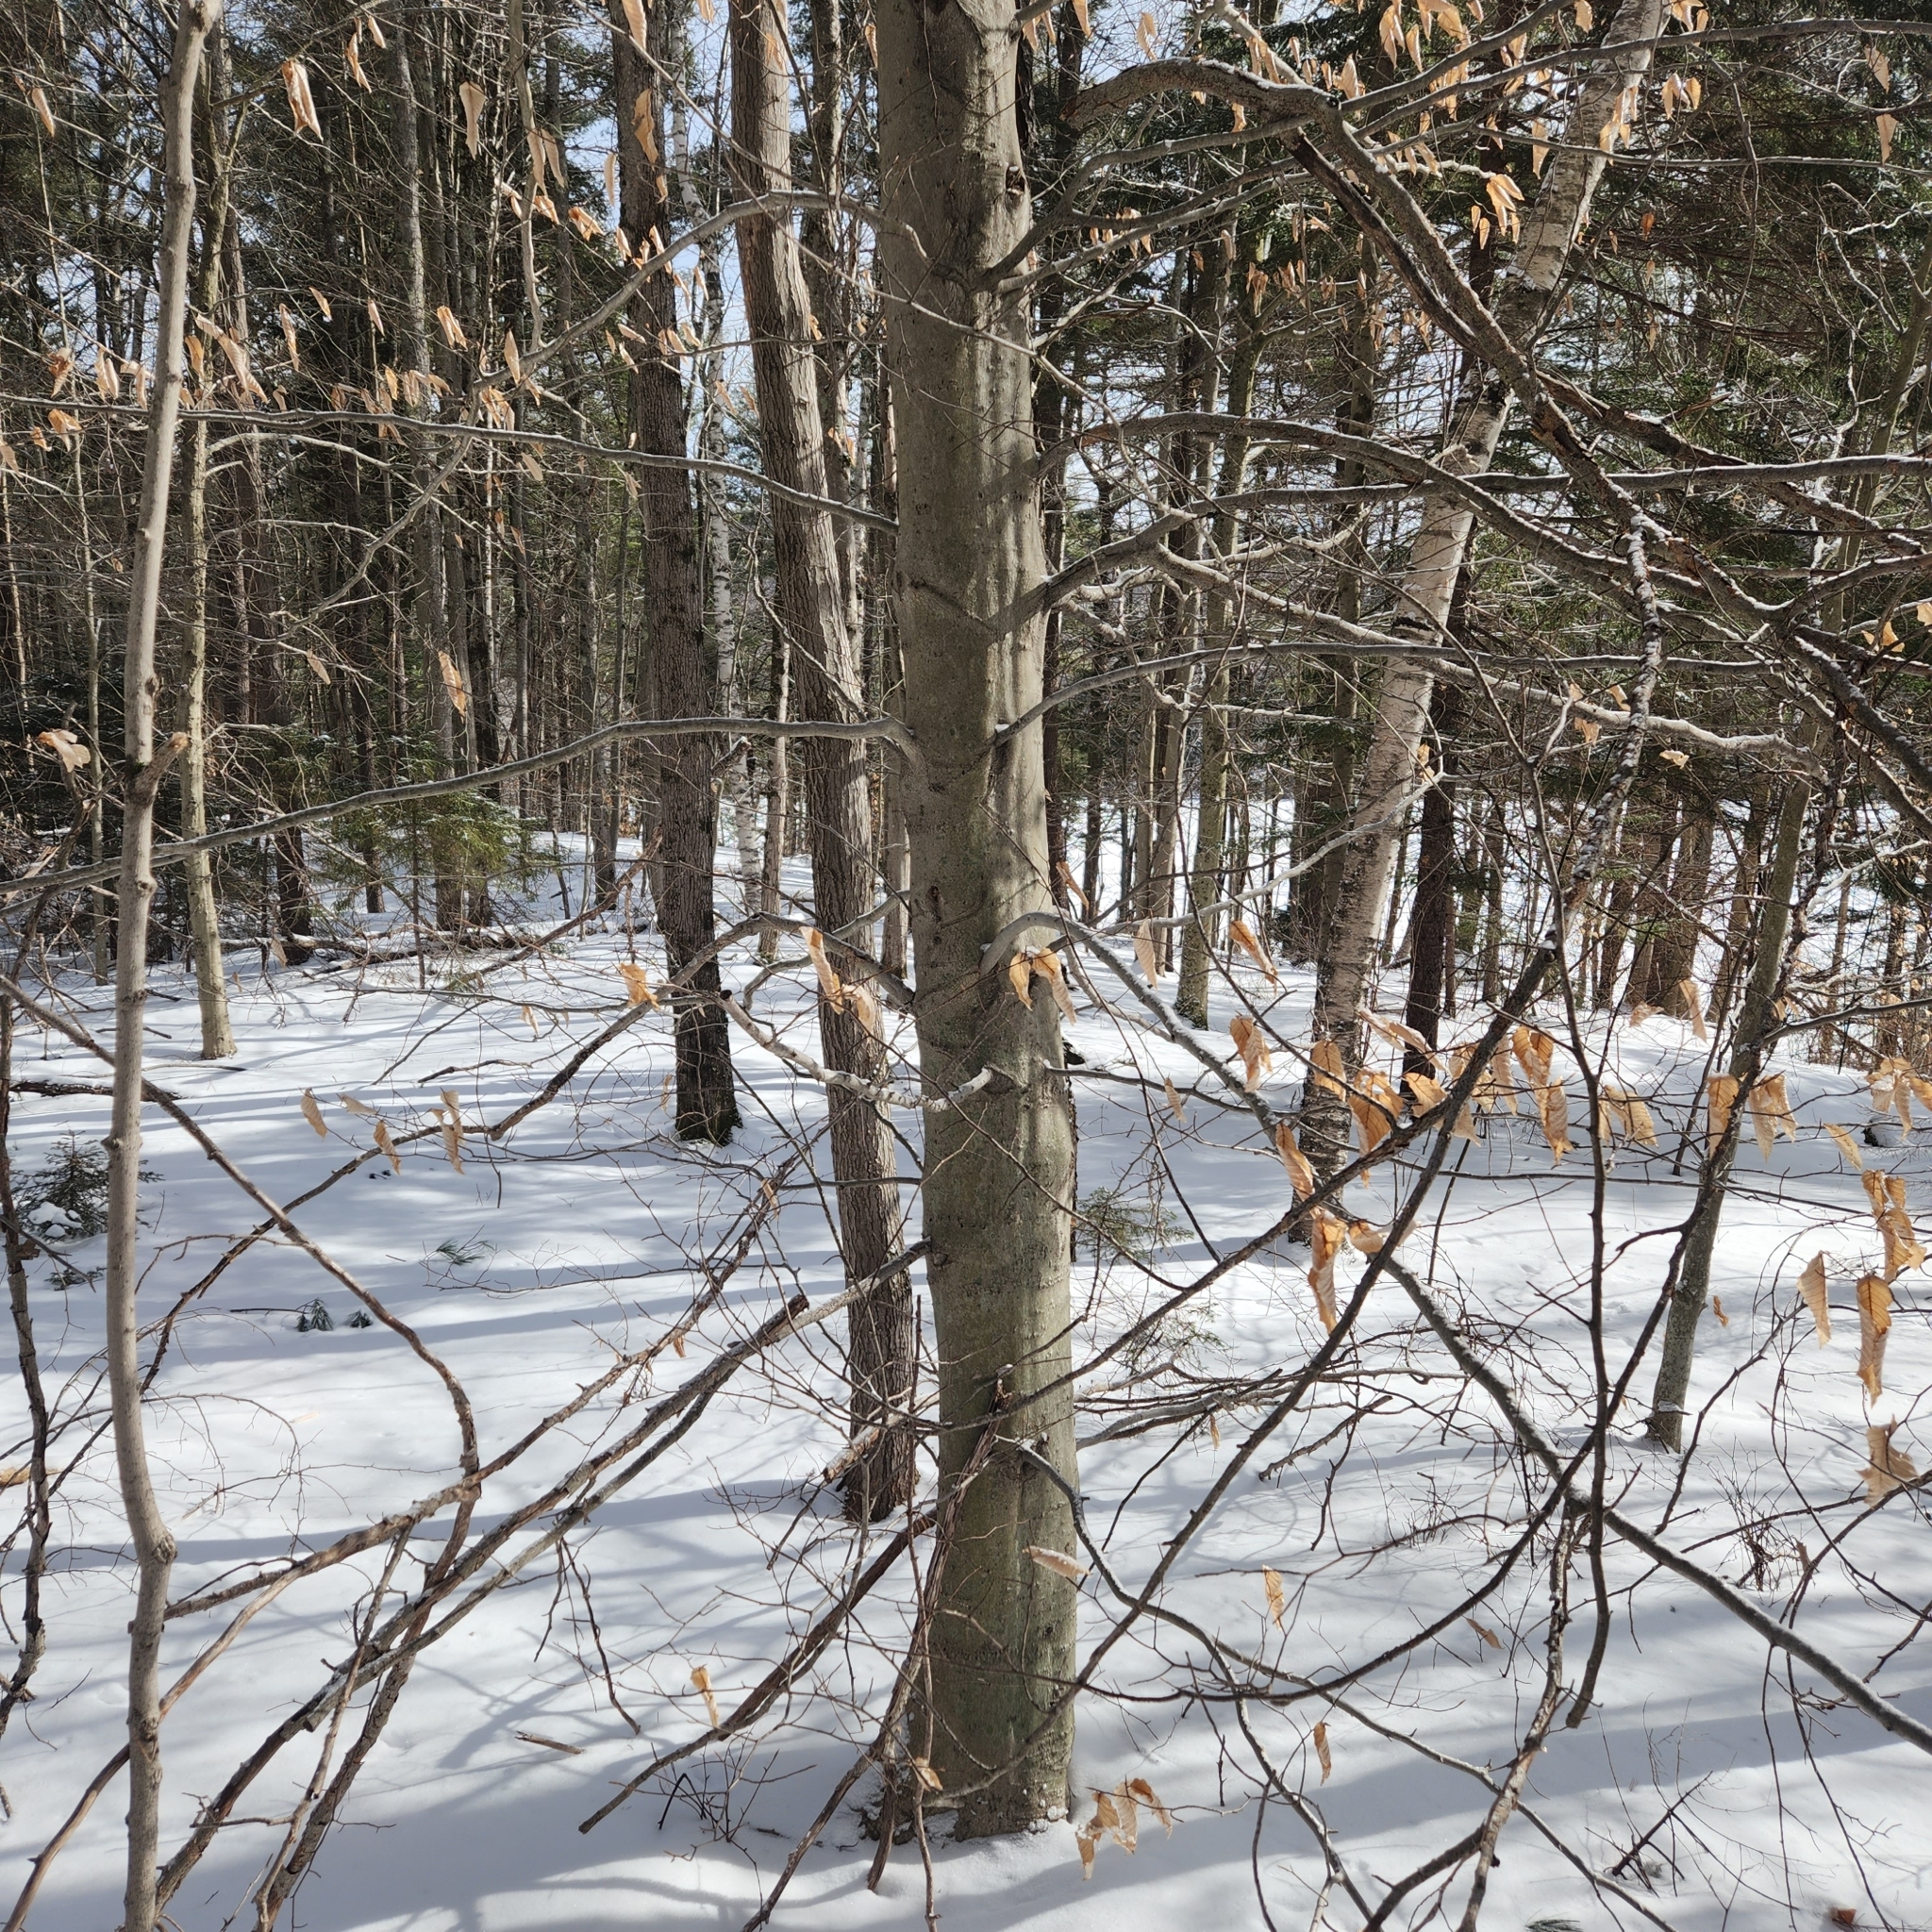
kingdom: Plantae
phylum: Tracheophyta
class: Magnoliopsida
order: Fagales
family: Fagaceae
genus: Fagus
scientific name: Fagus grandifolia
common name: American beech
